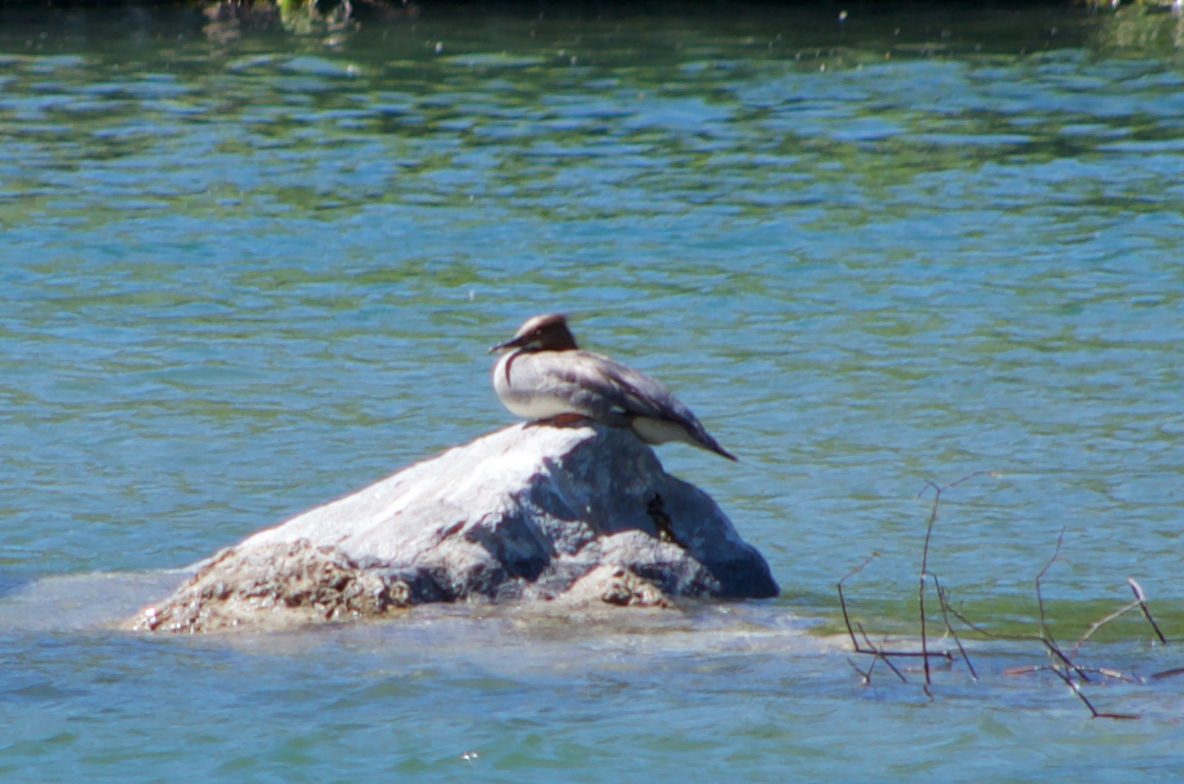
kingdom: Animalia
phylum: Chordata
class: Aves
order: Anseriformes
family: Anatidae
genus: Mergus
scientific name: Mergus merganser
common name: Common merganser
